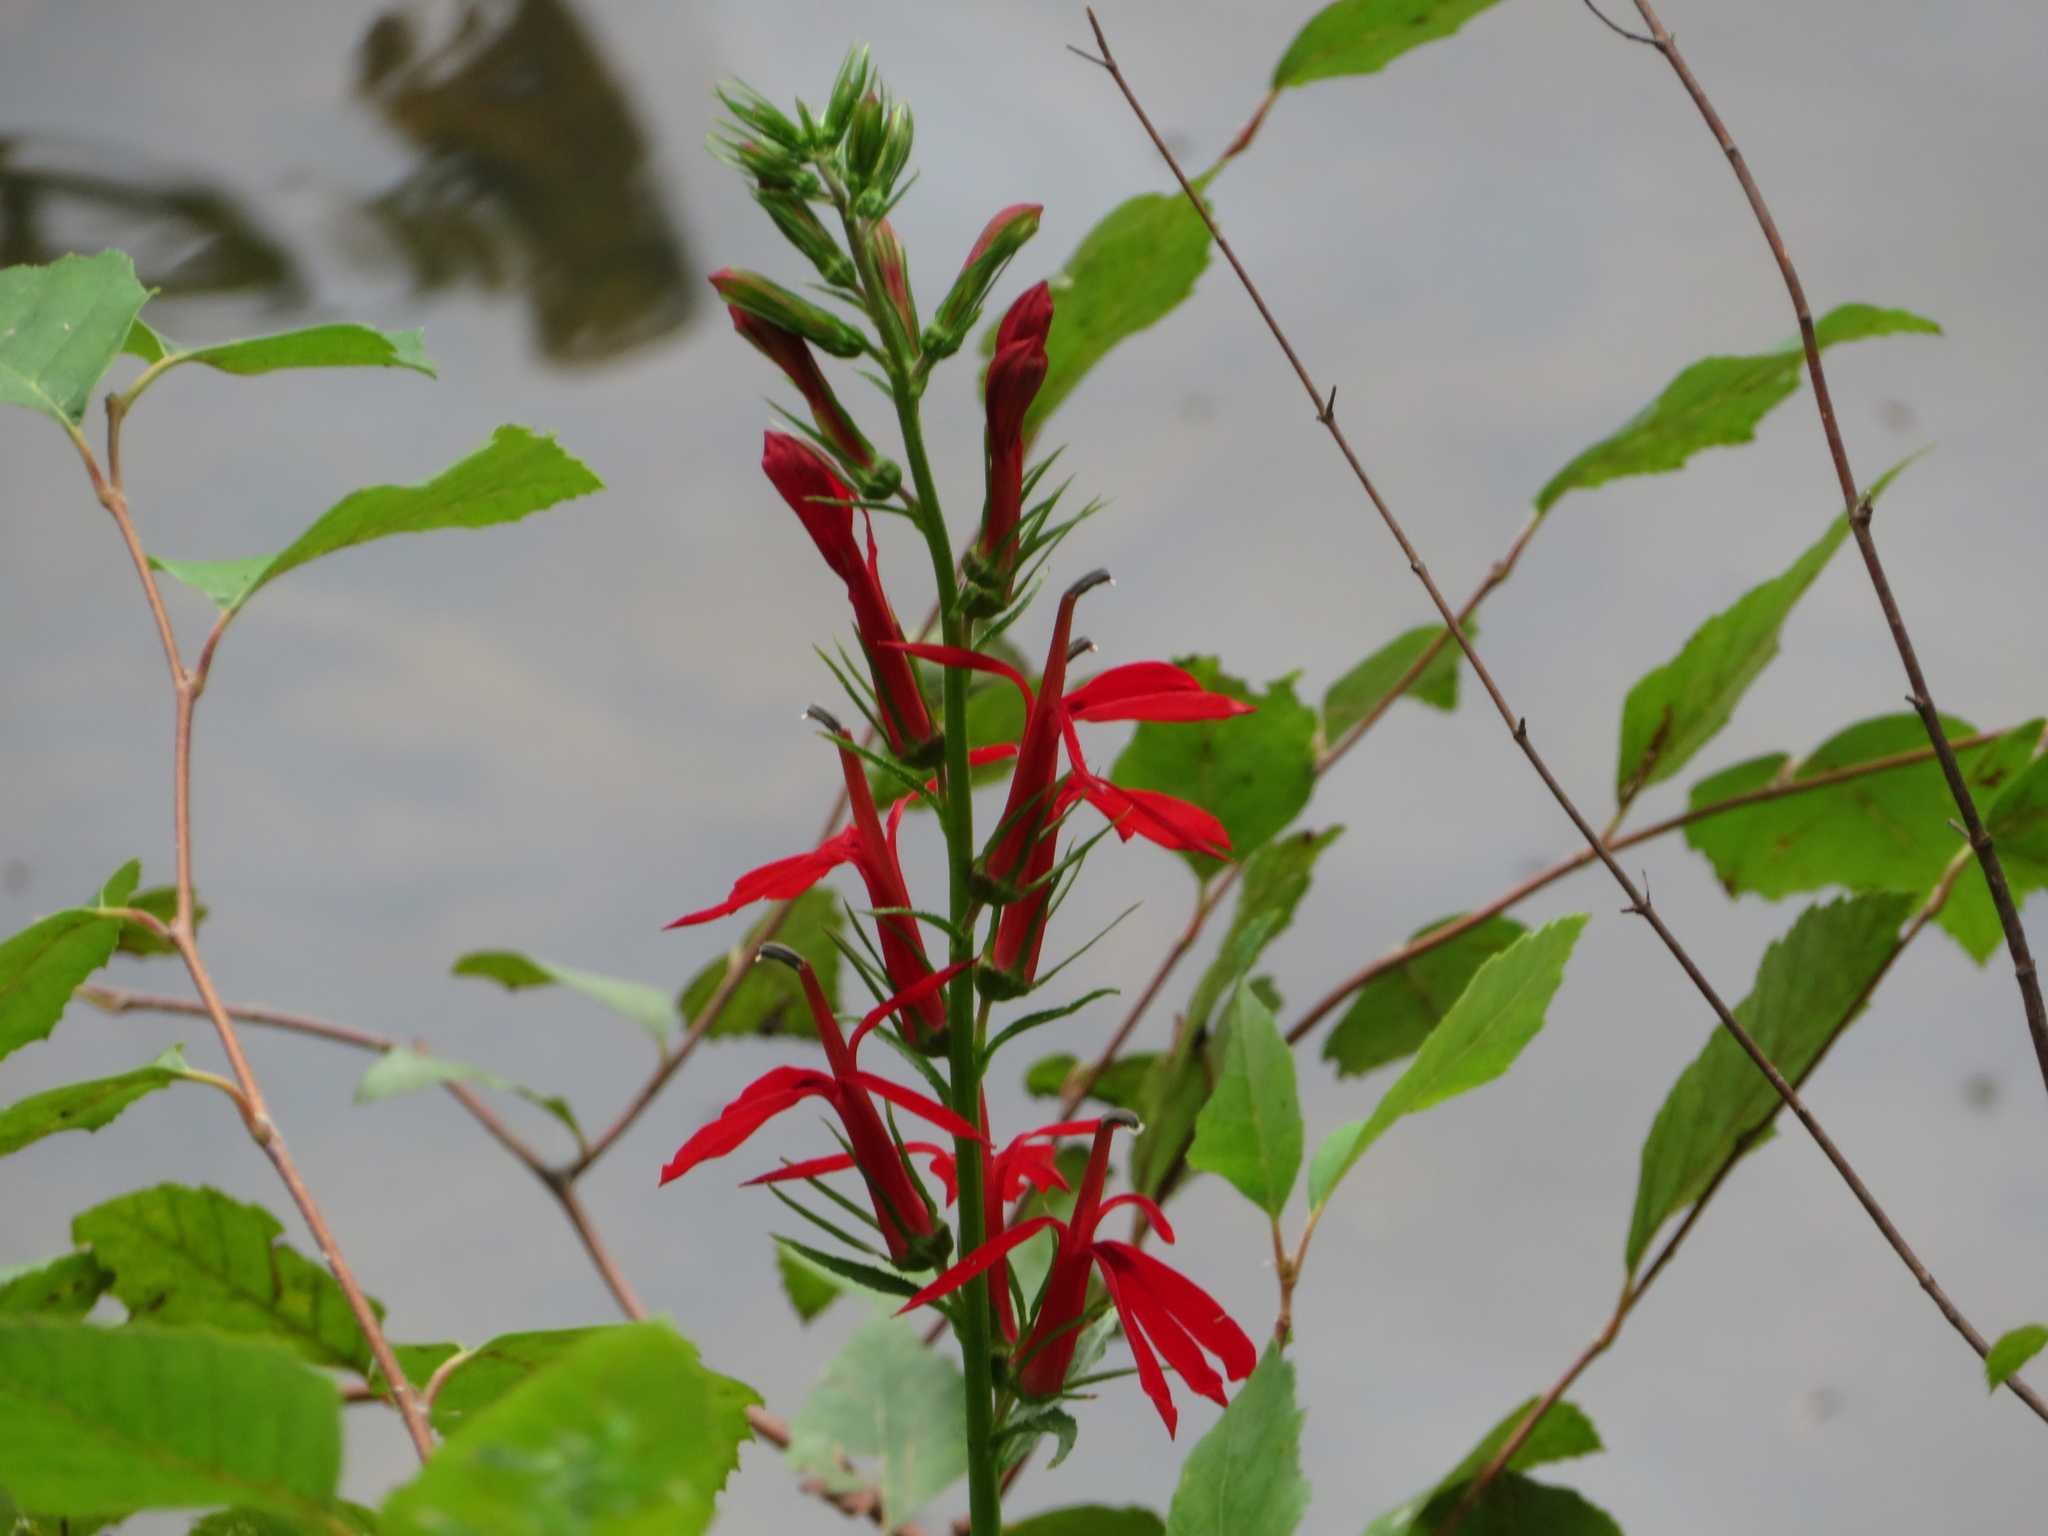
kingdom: Plantae
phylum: Tracheophyta
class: Magnoliopsida
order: Asterales
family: Campanulaceae
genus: Lobelia
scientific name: Lobelia cardinalis
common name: Cardinal flower
